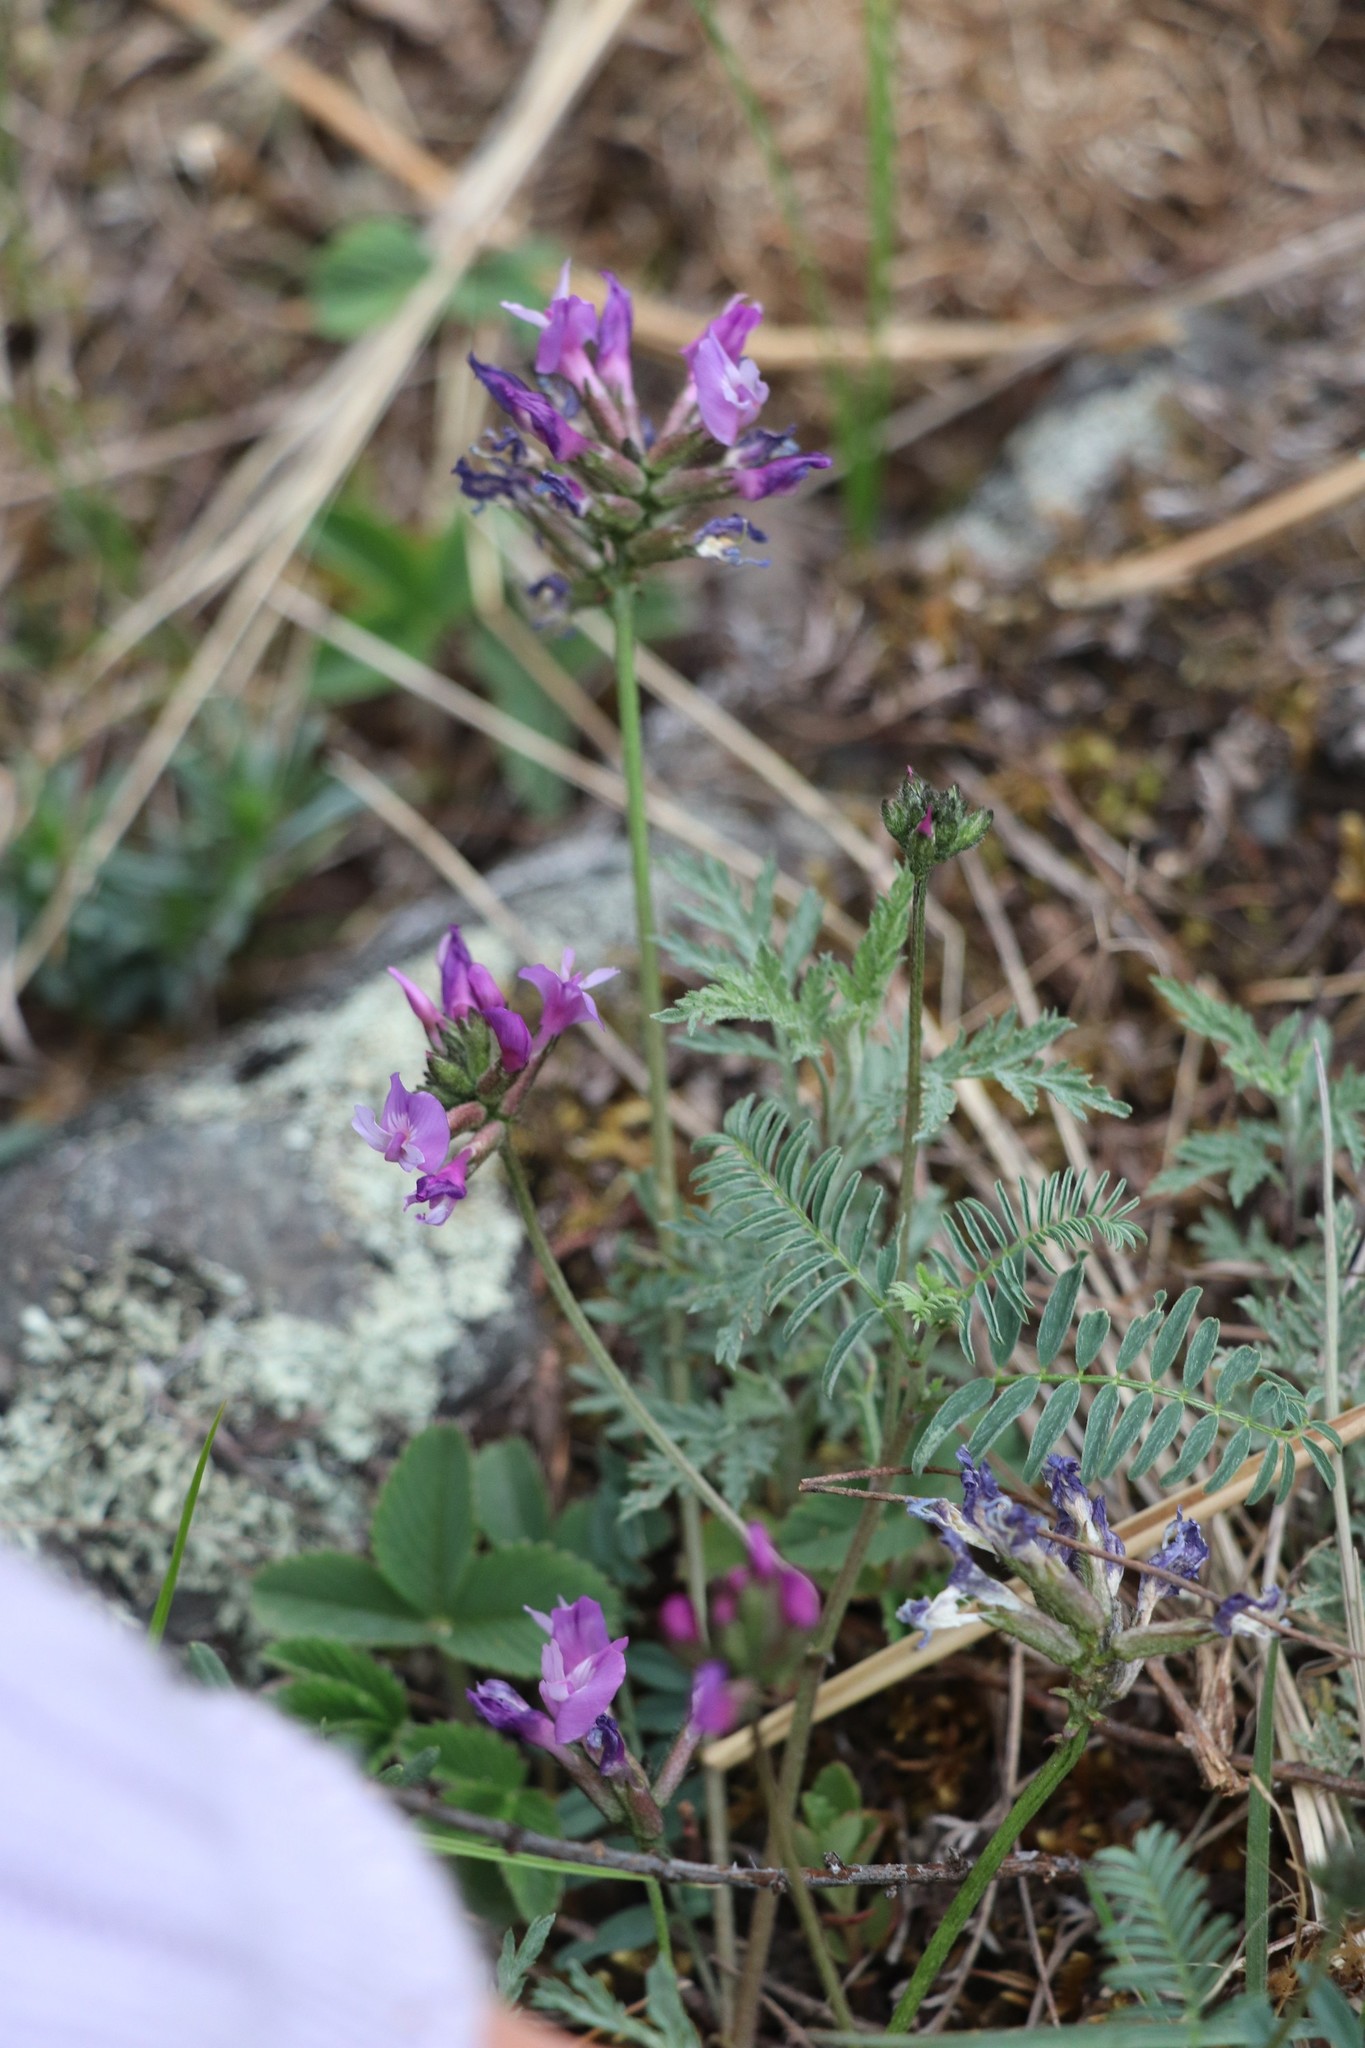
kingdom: Plantae
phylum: Tracheophyta
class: Magnoliopsida
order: Fabales
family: Fabaceae
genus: Astragalus
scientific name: Astragalus danicus
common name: Purple milk-vetch
